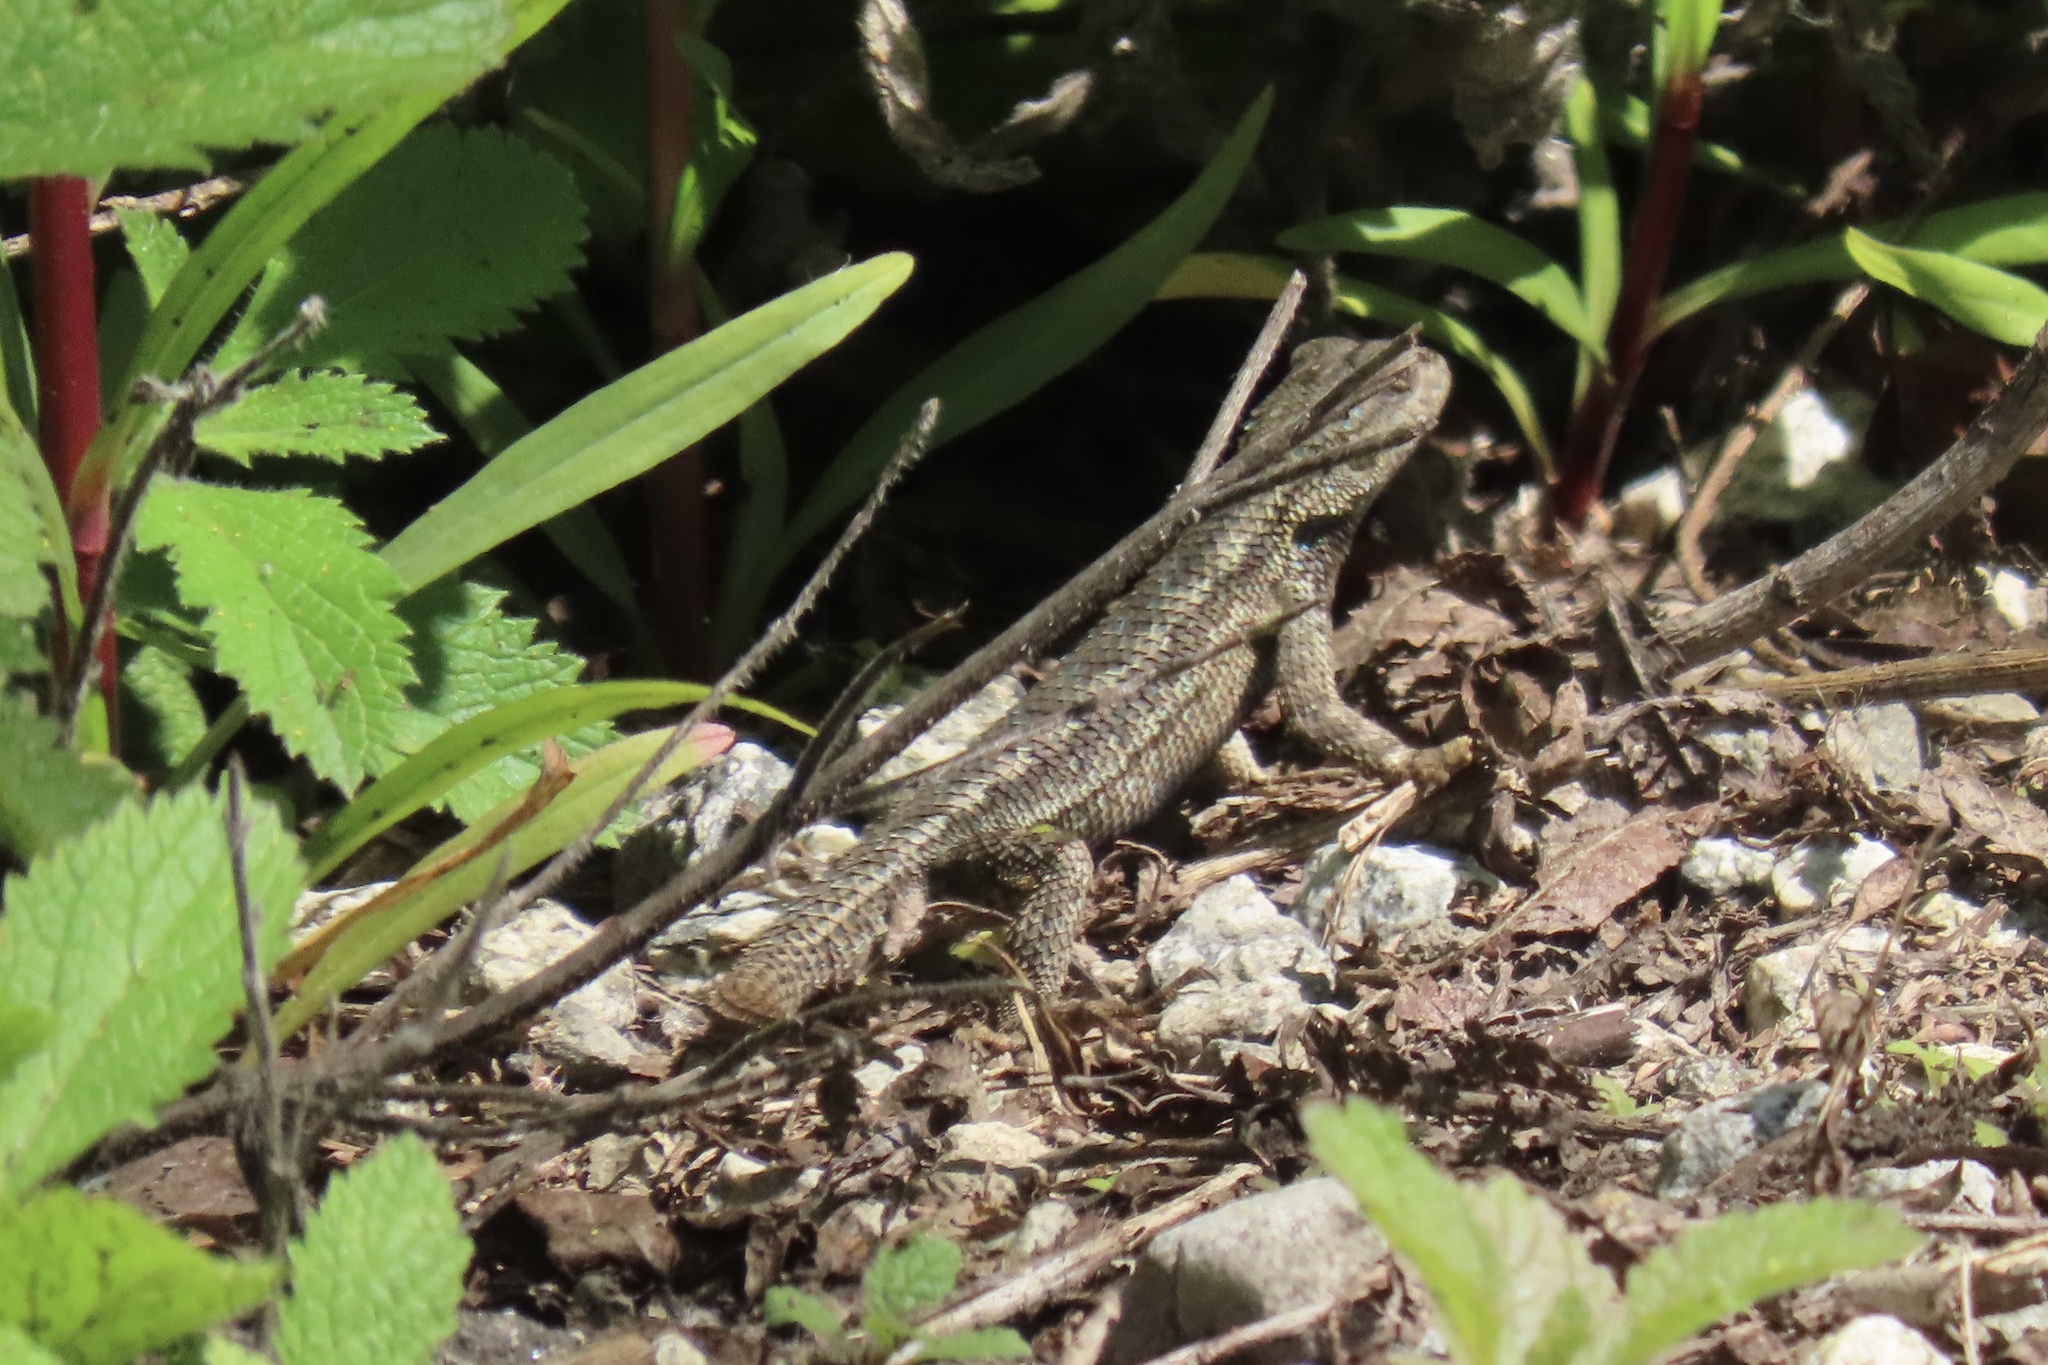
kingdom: Animalia
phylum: Chordata
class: Squamata
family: Phrynosomatidae
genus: Sceloporus
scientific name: Sceloporus occidentalis
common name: Western fence lizard
